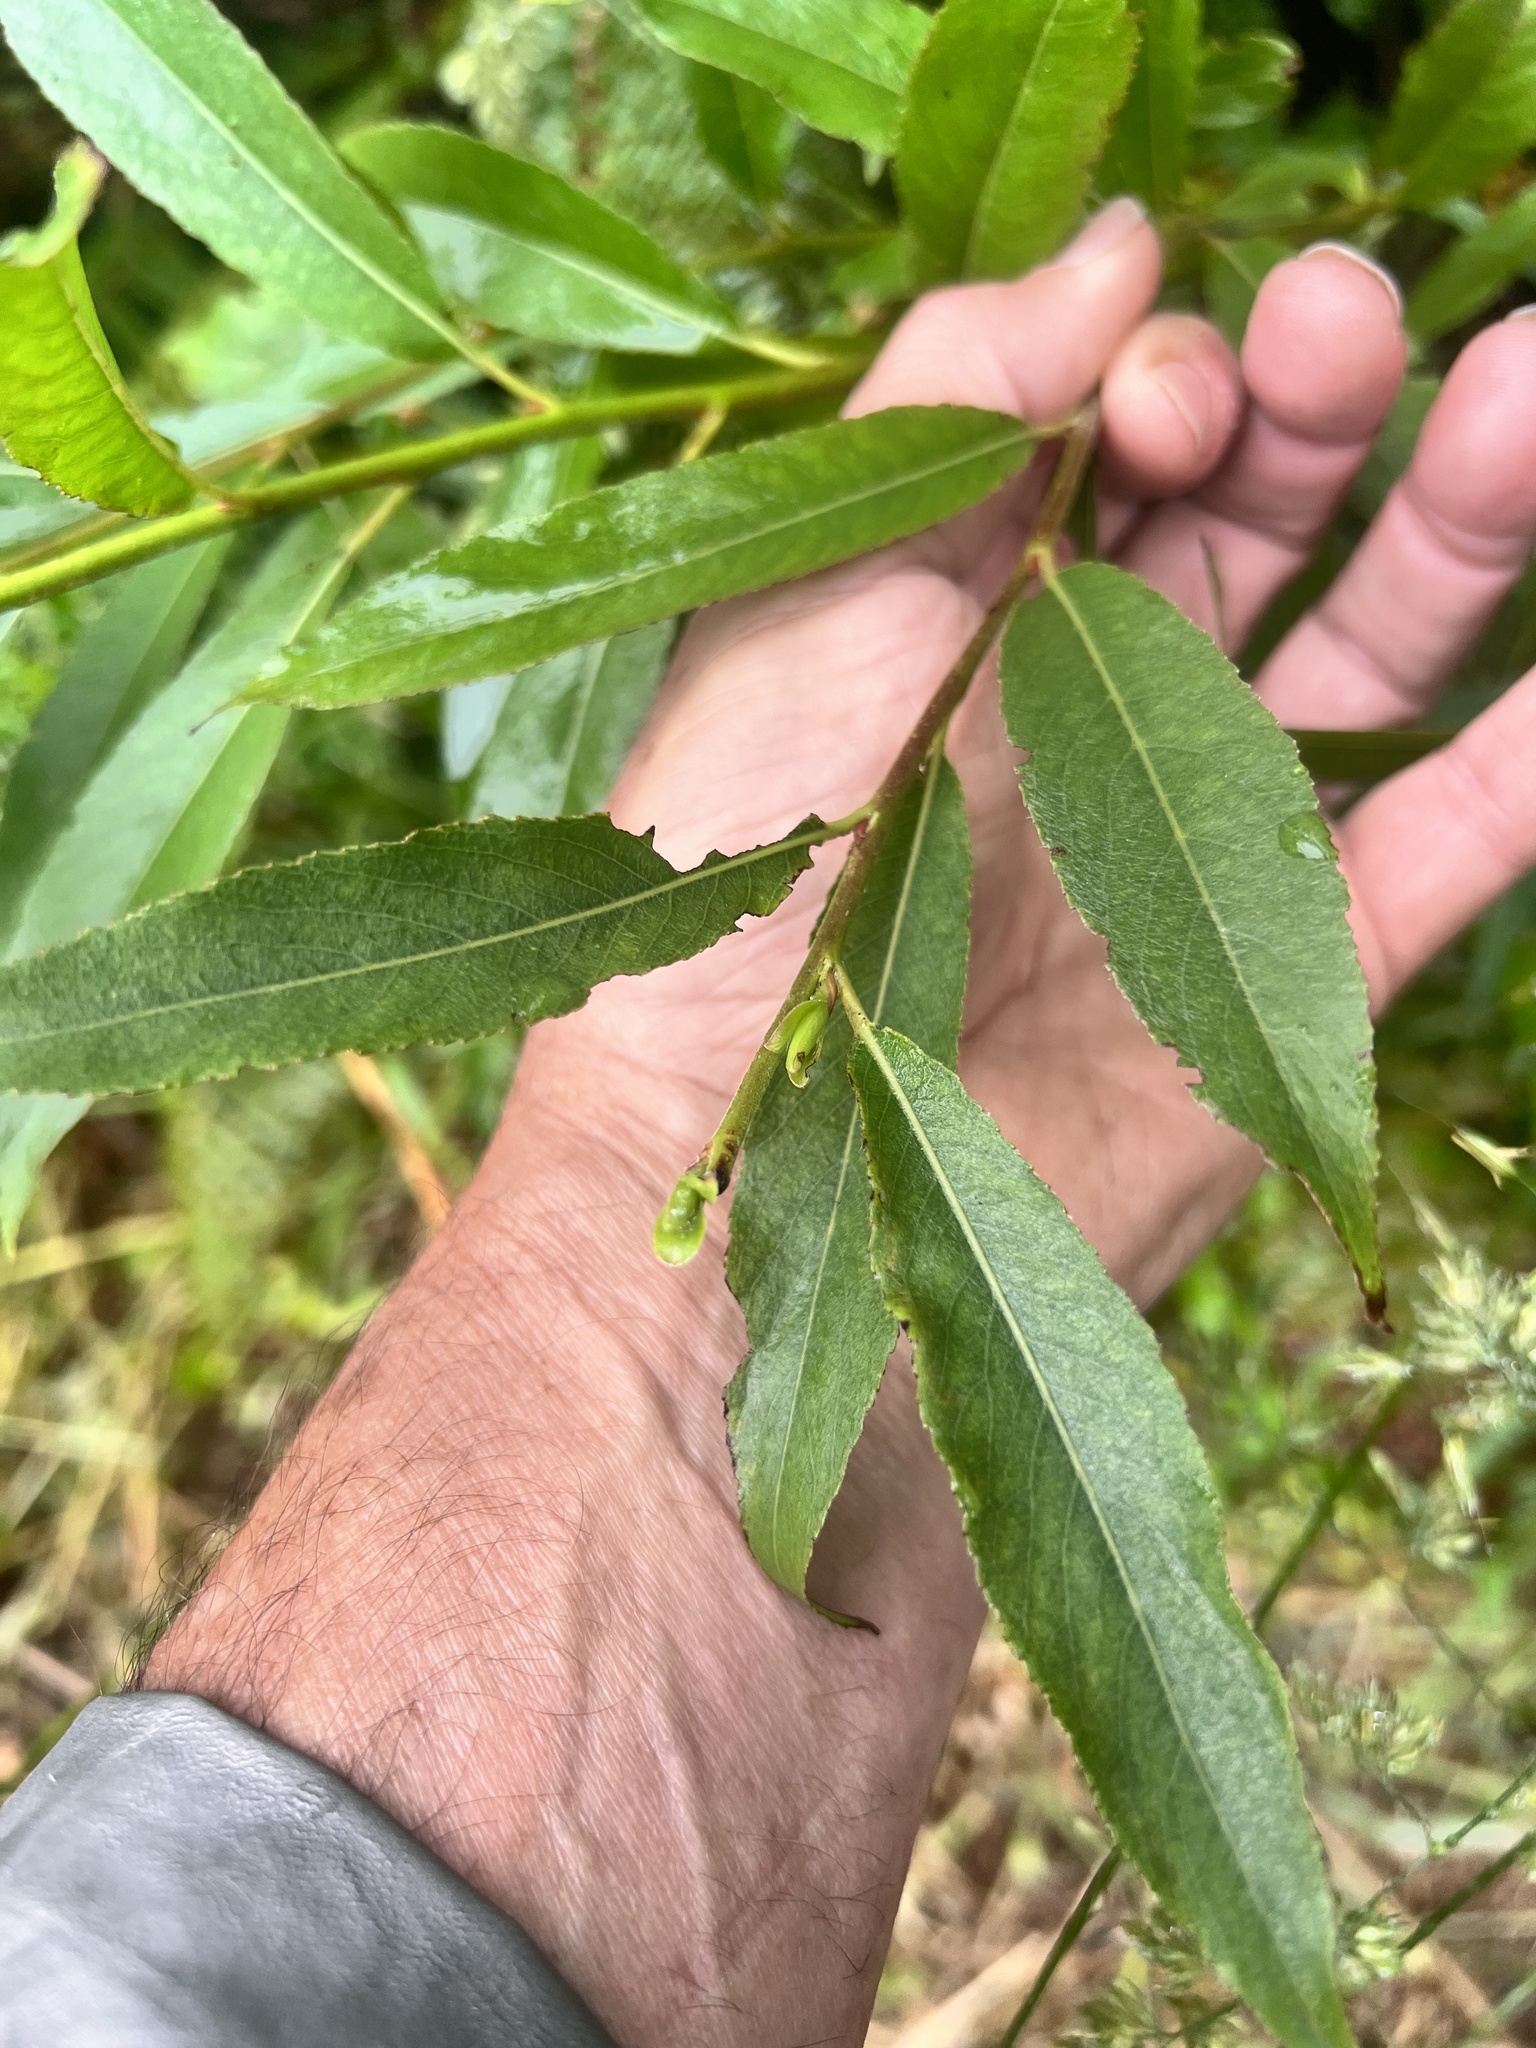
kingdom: Plantae
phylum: Tracheophyta
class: Magnoliopsida
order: Malpighiales
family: Salicaceae
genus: Salix
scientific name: Salix alba
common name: White willow
